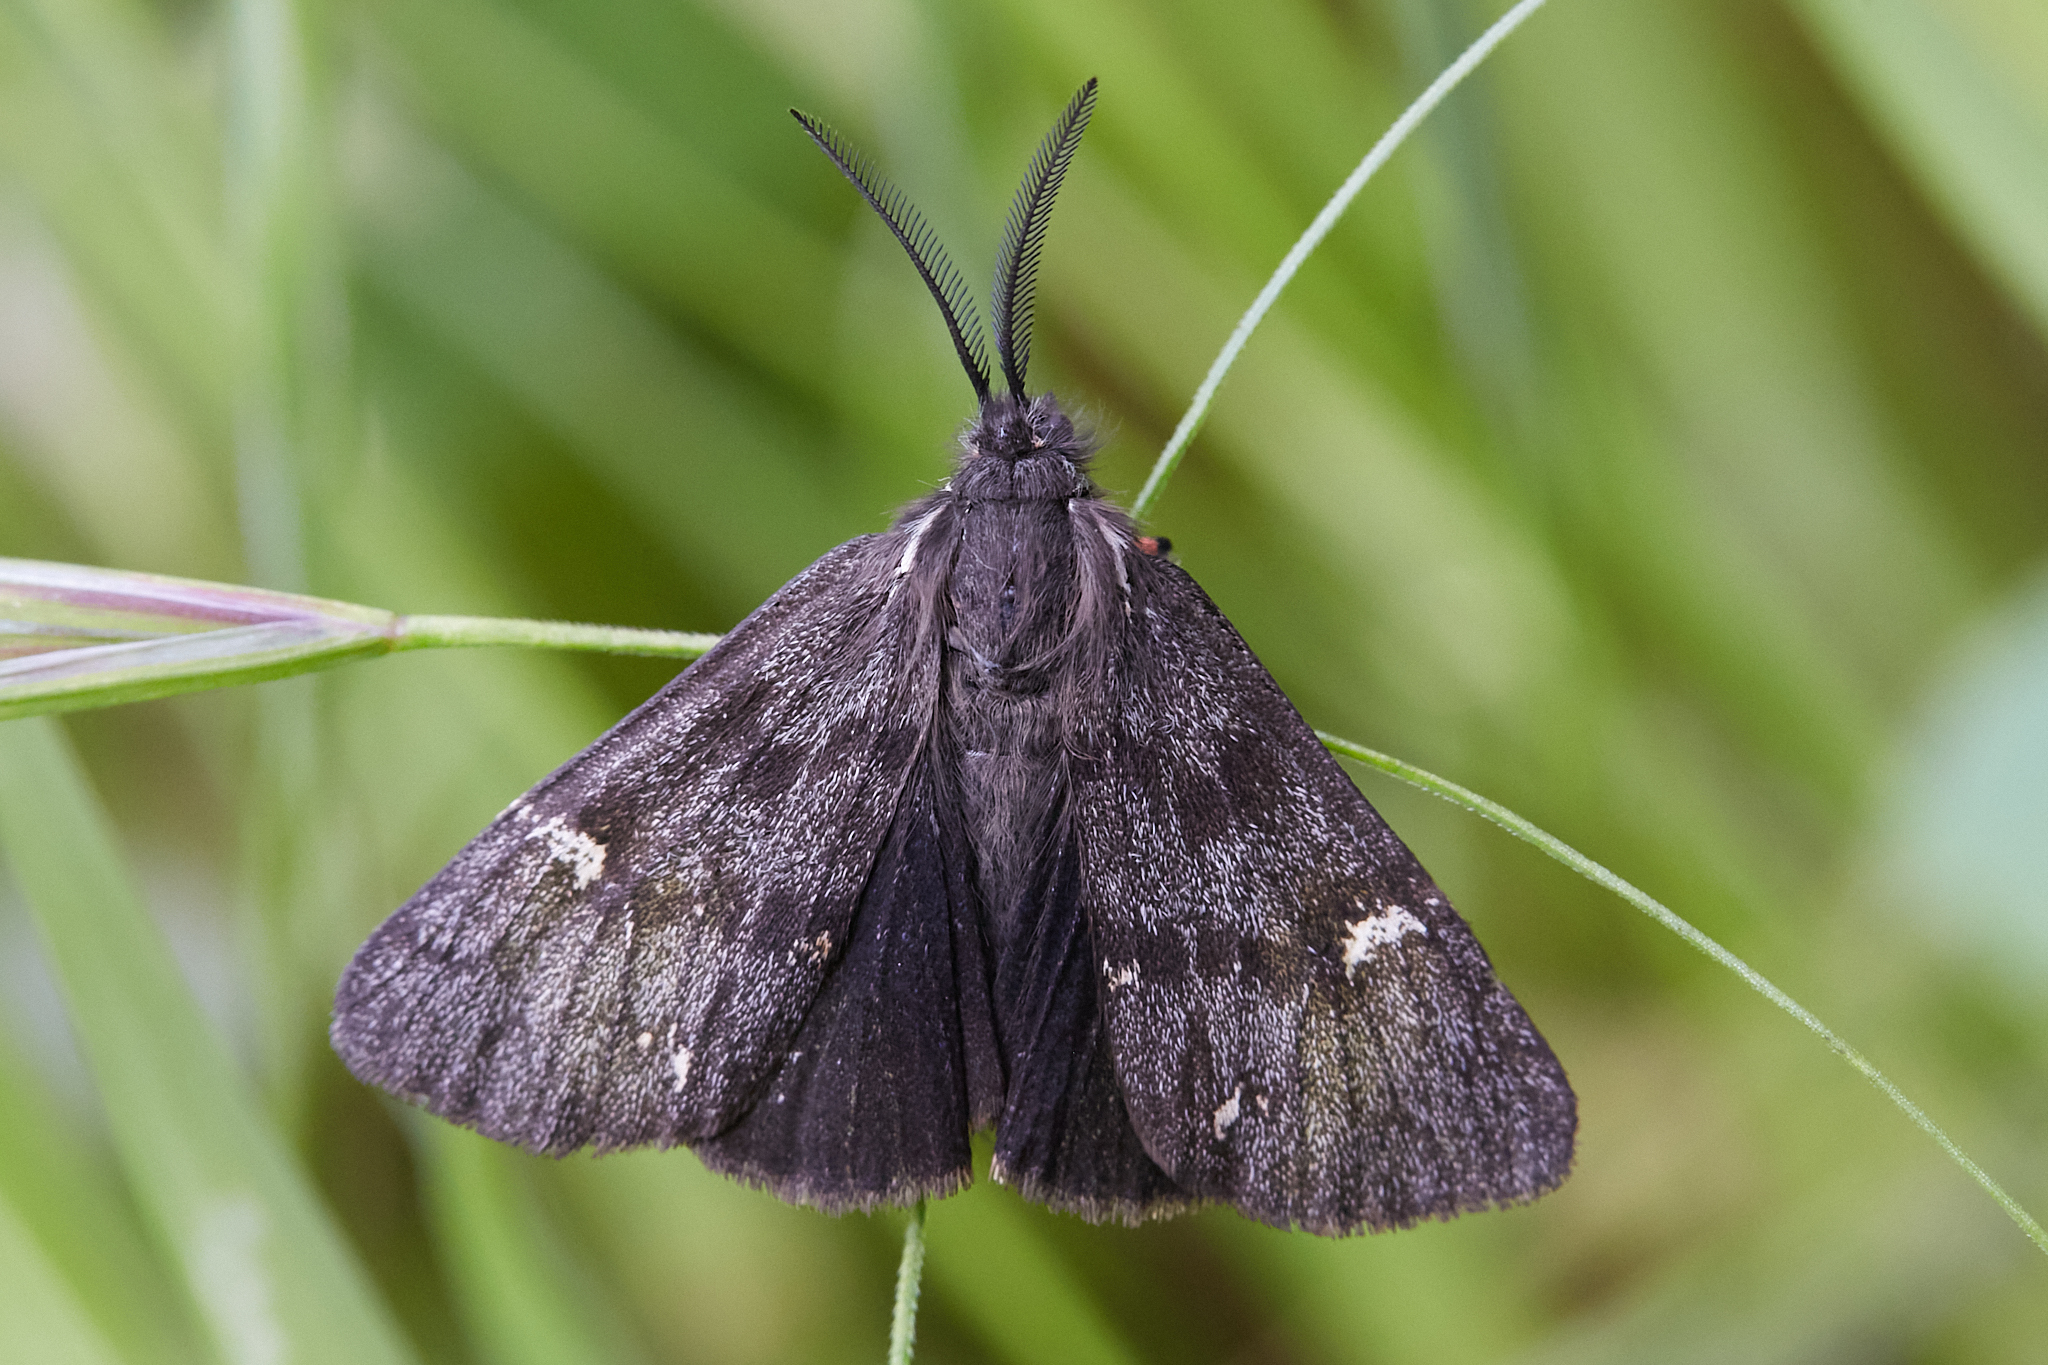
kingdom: Animalia
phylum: Arthropoda
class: Insecta
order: Lepidoptera
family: Erebidae
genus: Leptarctia
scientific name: Leptarctia californiae
